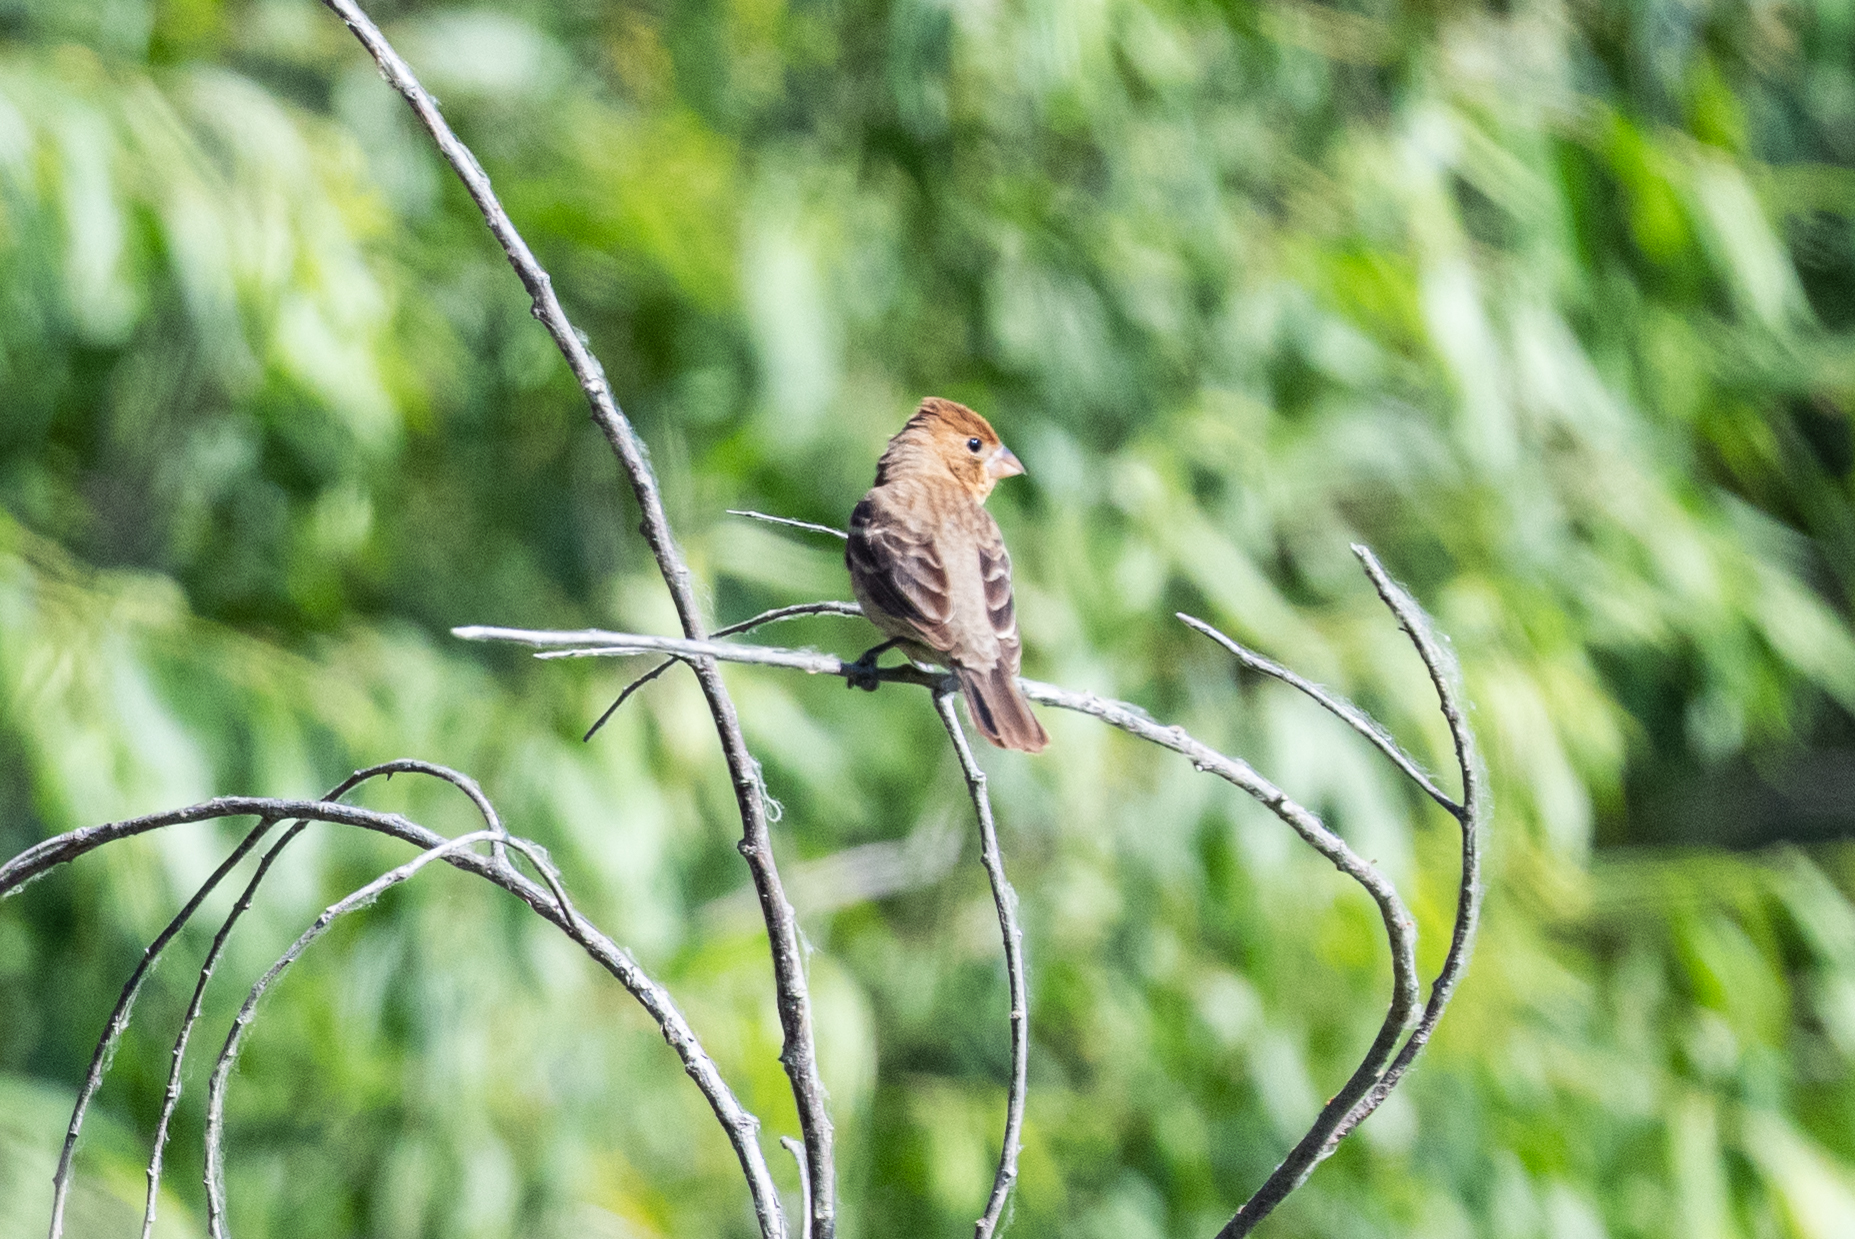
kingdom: Animalia
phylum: Chordata
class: Aves
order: Passeriformes
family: Cardinalidae
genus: Passerina
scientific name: Passerina caerulea
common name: Blue grosbeak
